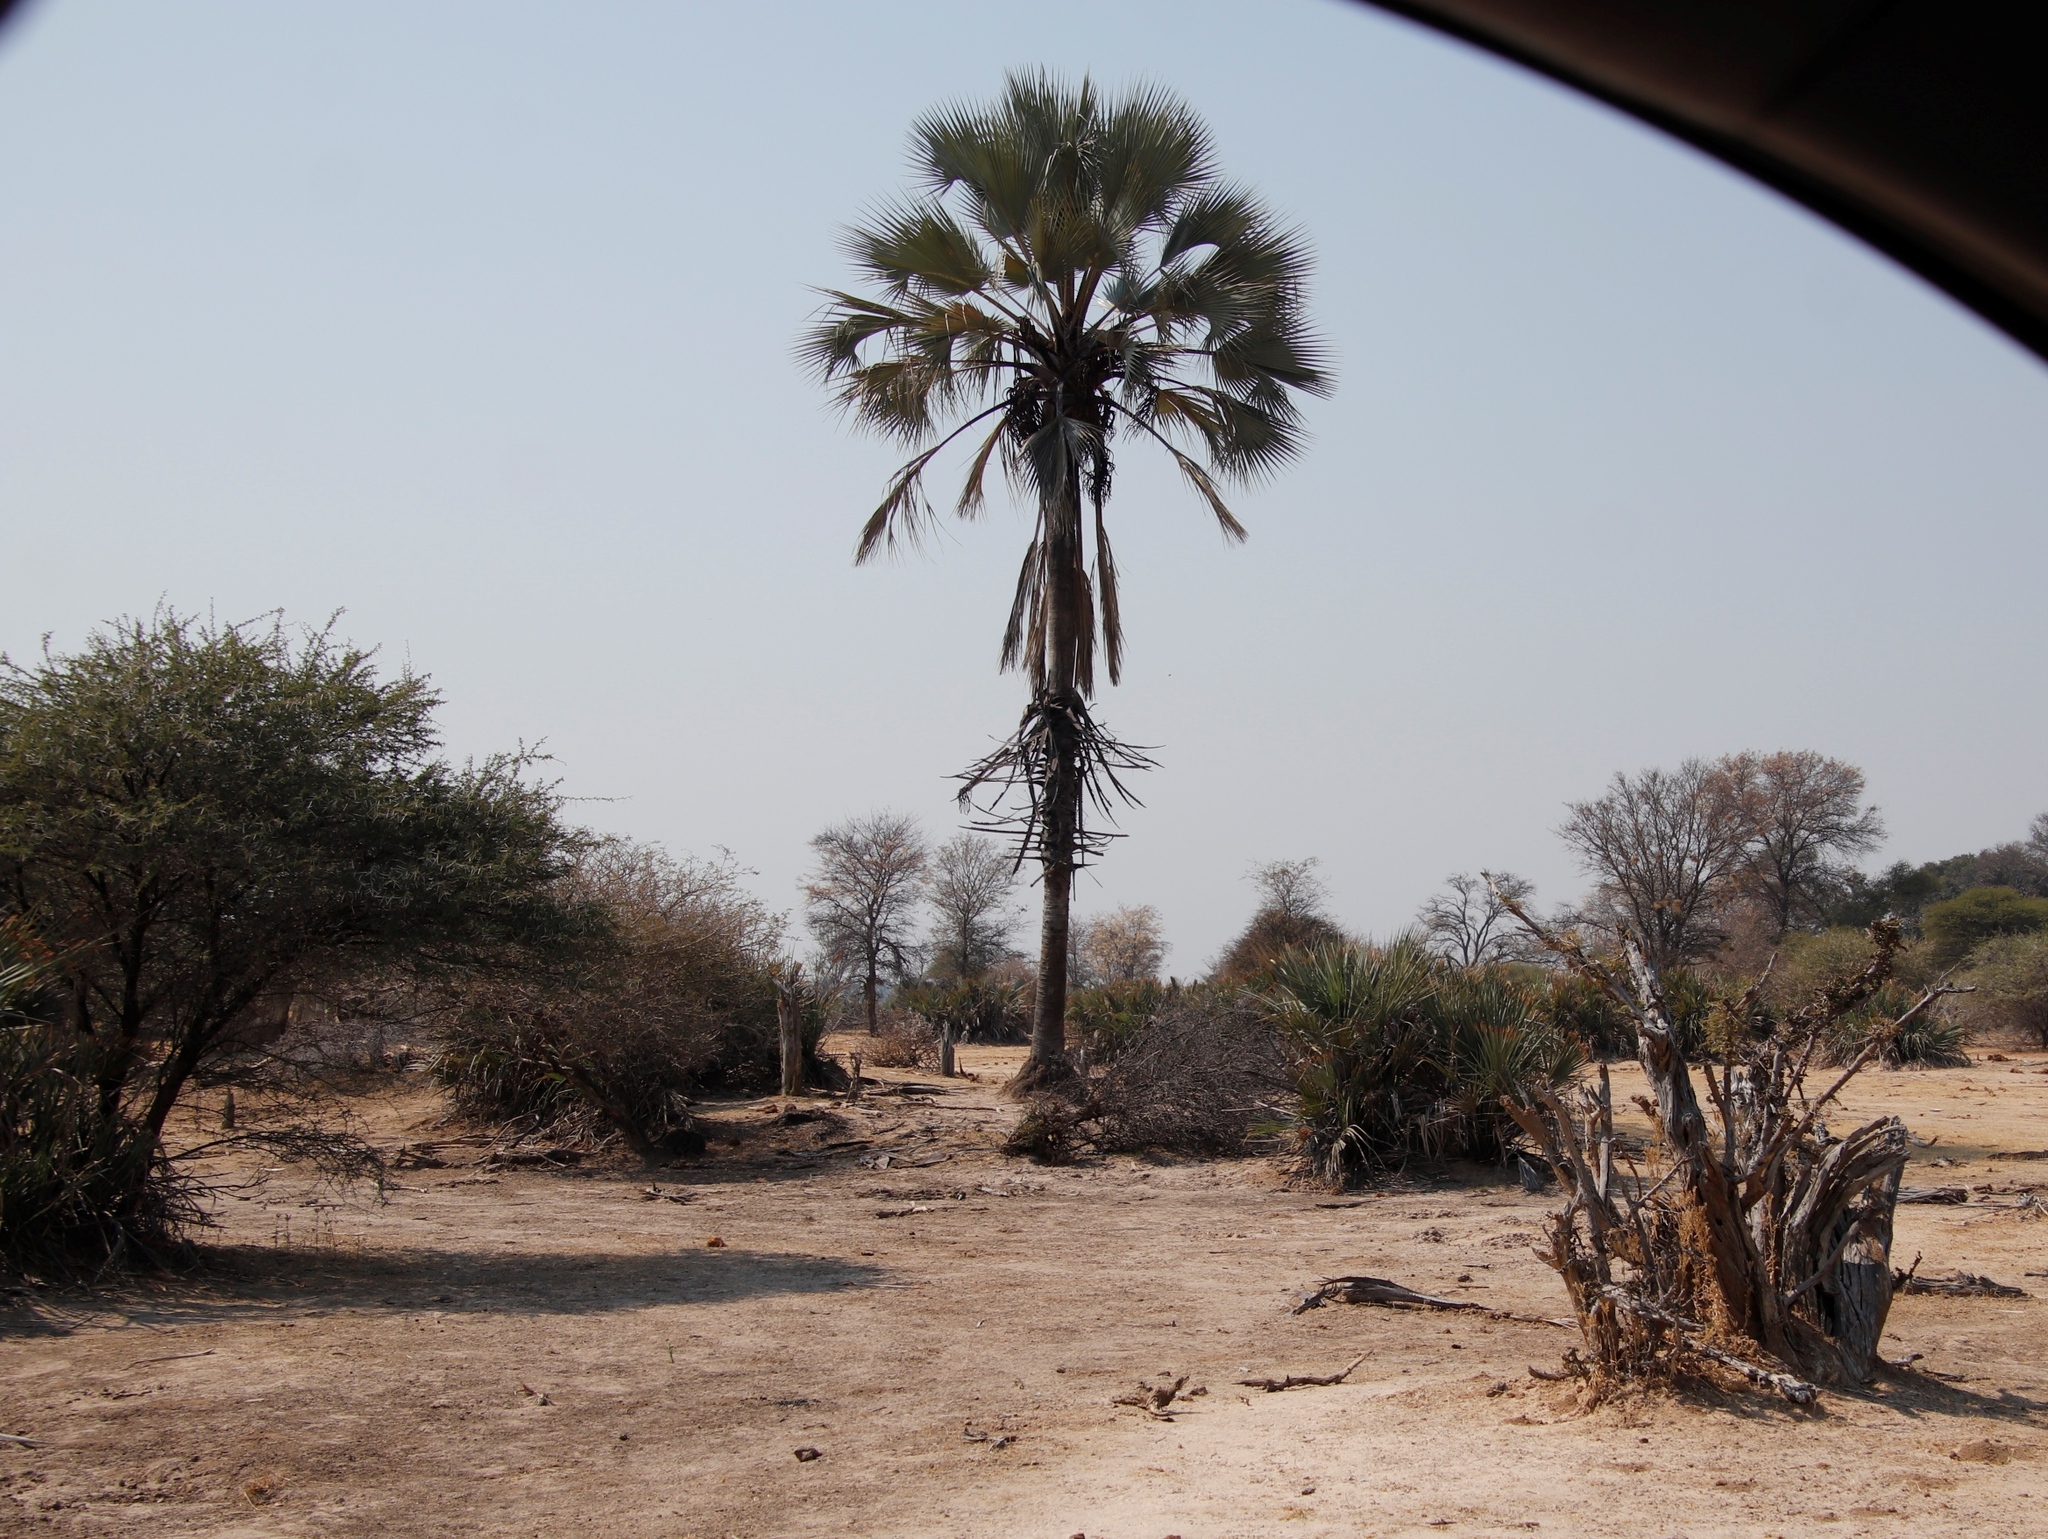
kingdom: Plantae
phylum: Tracheophyta
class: Liliopsida
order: Arecales
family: Arecaceae
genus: Hyphaene
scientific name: Hyphaene petersiana
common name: African ivory nut palm
